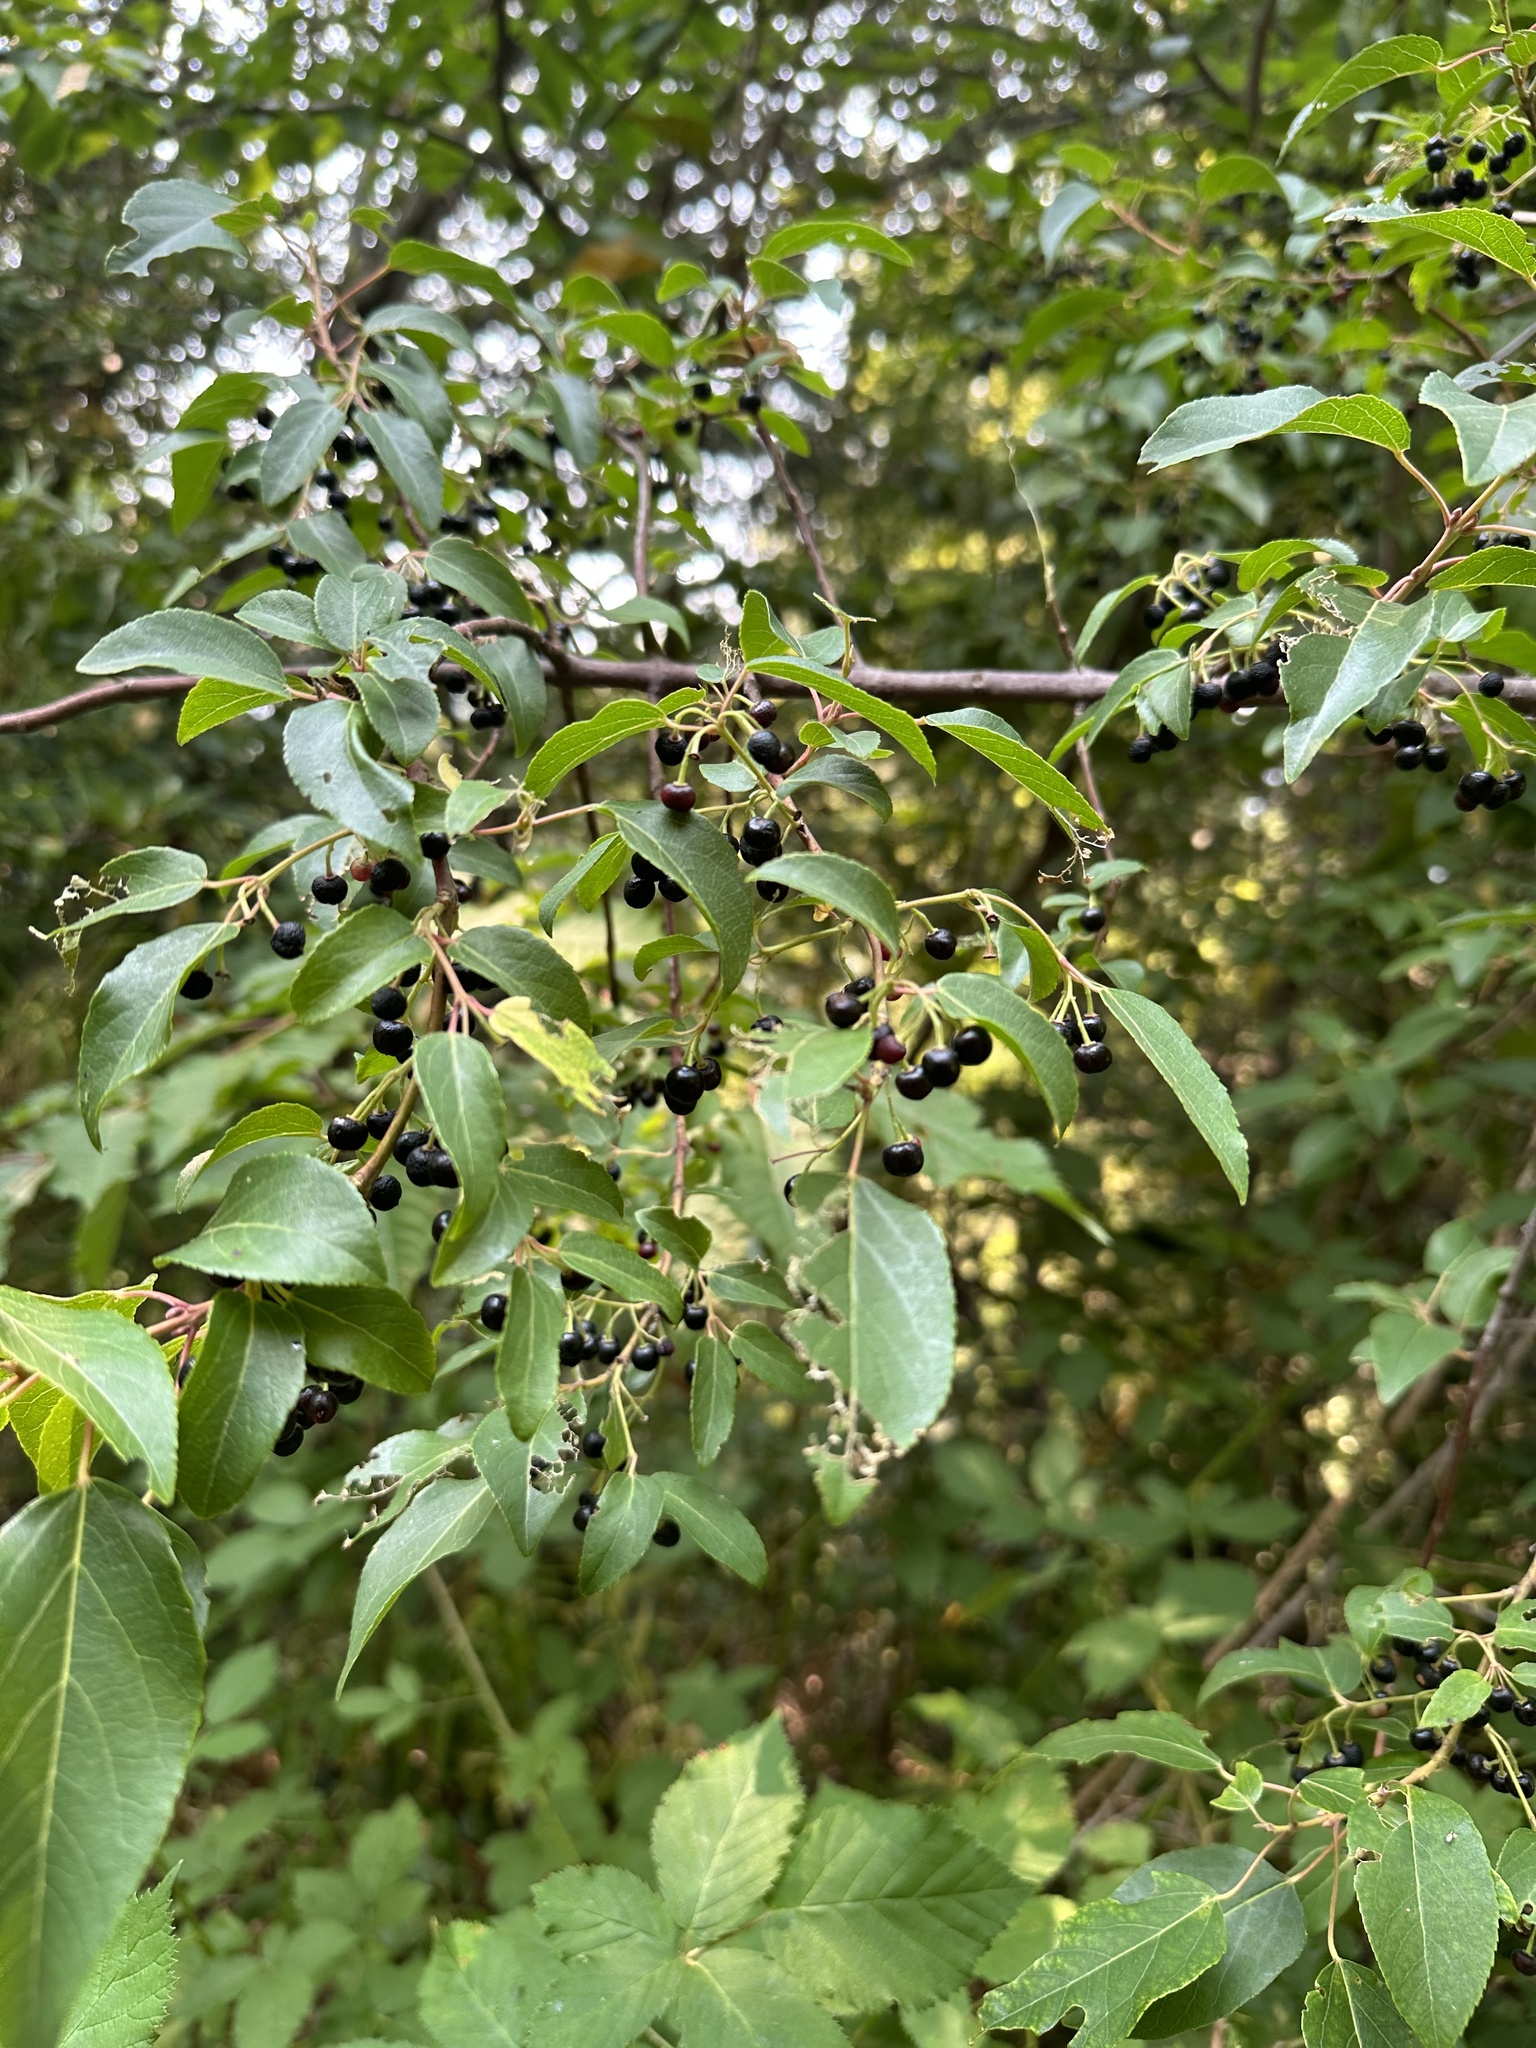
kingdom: Plantae
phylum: Tracheophyta
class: Magnoliopsida
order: Oxalidales
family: Elaeocarpaceae
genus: Aristotelia
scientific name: Aristotelia chilensis
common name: Maquei
